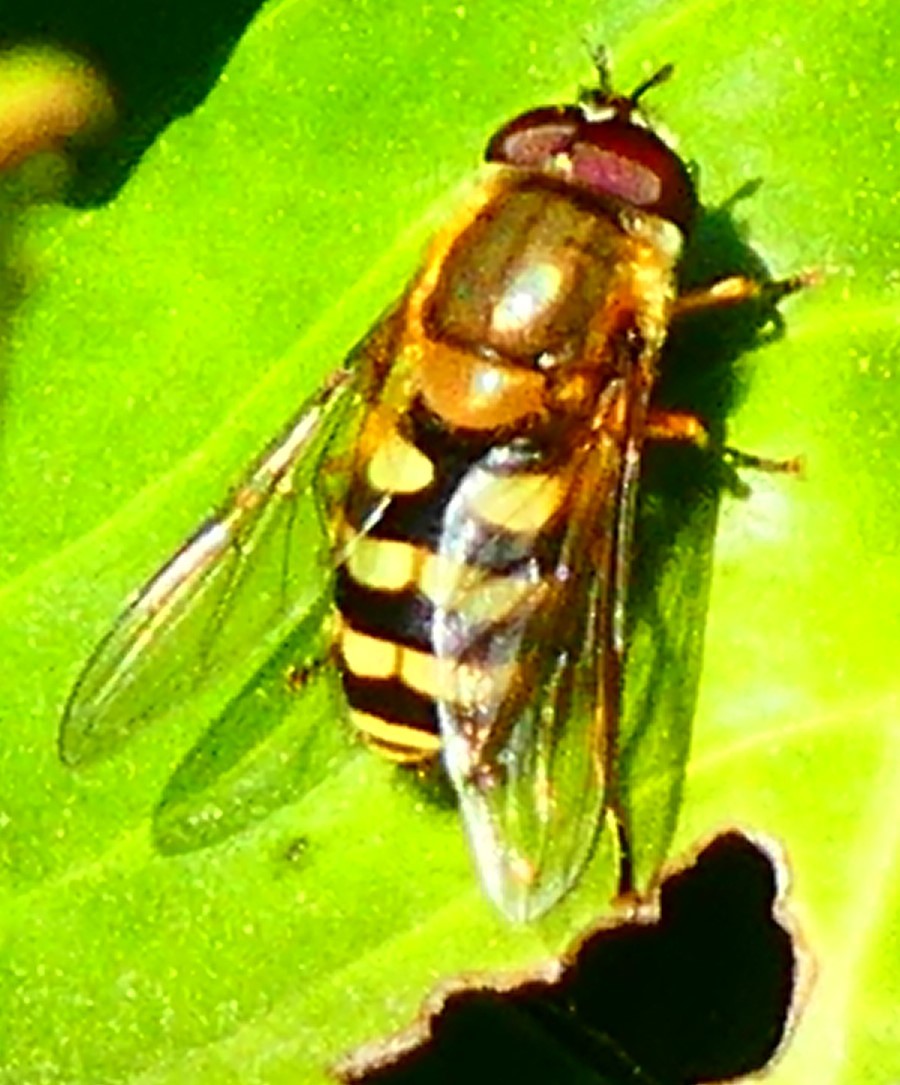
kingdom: Animalia
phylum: Arthropoda
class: Insecta
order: Diptera
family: Syrphidae
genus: Syrphus
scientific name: Syrphus
